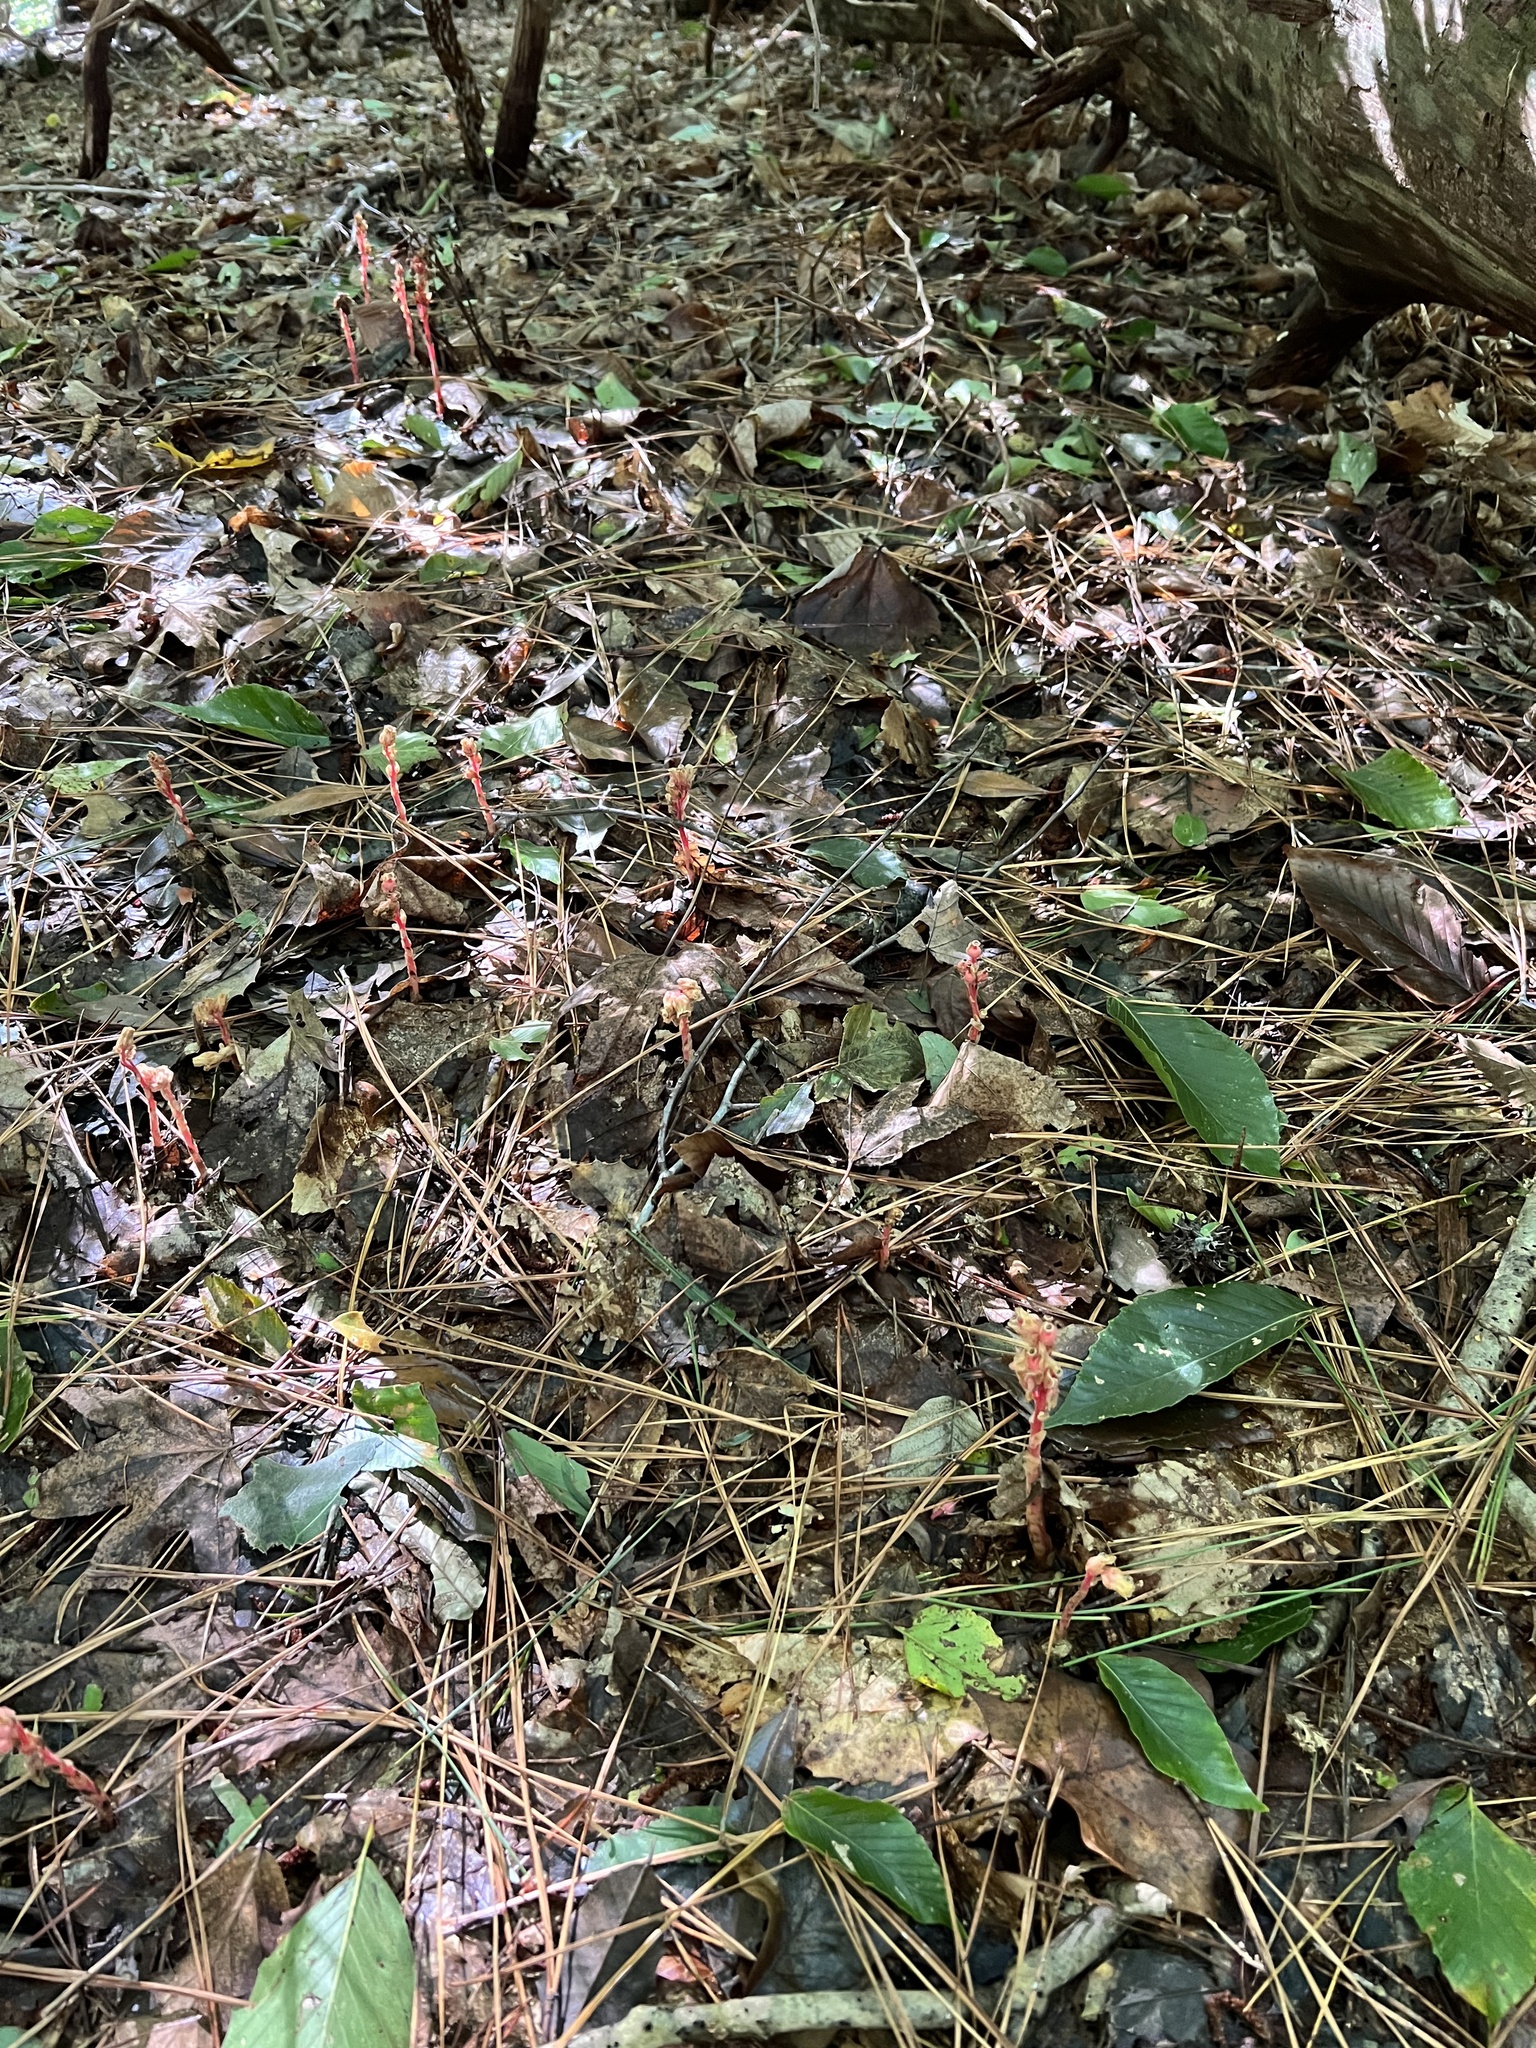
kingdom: Plantae
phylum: Tracheophyta
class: Magnoliopsida
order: Ericales
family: Ericaceae
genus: Hypopitys
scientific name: Hypopitys monotropa
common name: Yellow bird's-nest
